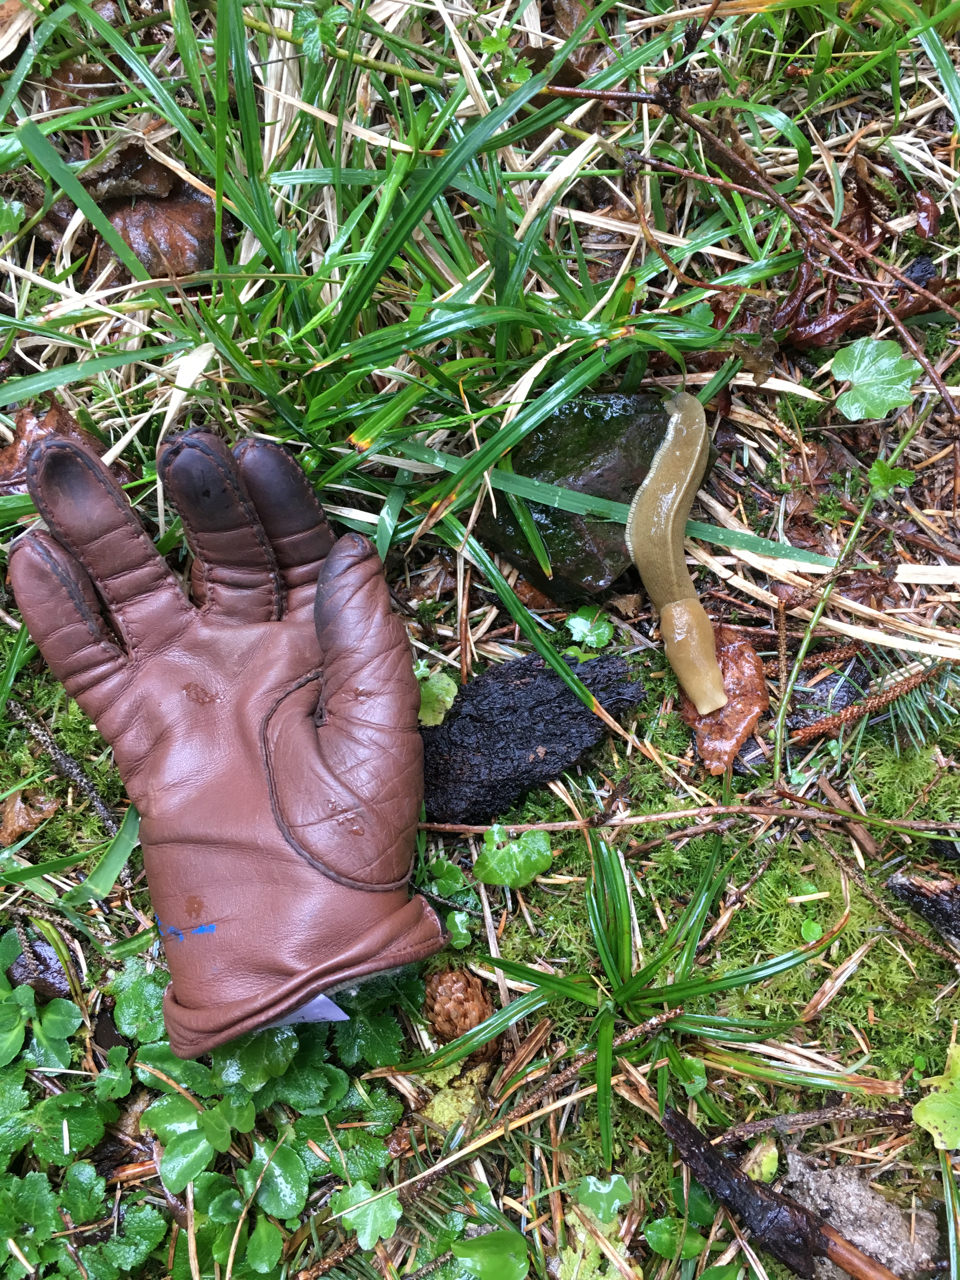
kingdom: Animalia
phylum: Mollusca
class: Gastropoda
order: Stylommatophora
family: Ariolimacidae
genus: Ariolimax
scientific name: Ariolimax columbianus
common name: Pacific banana slug
